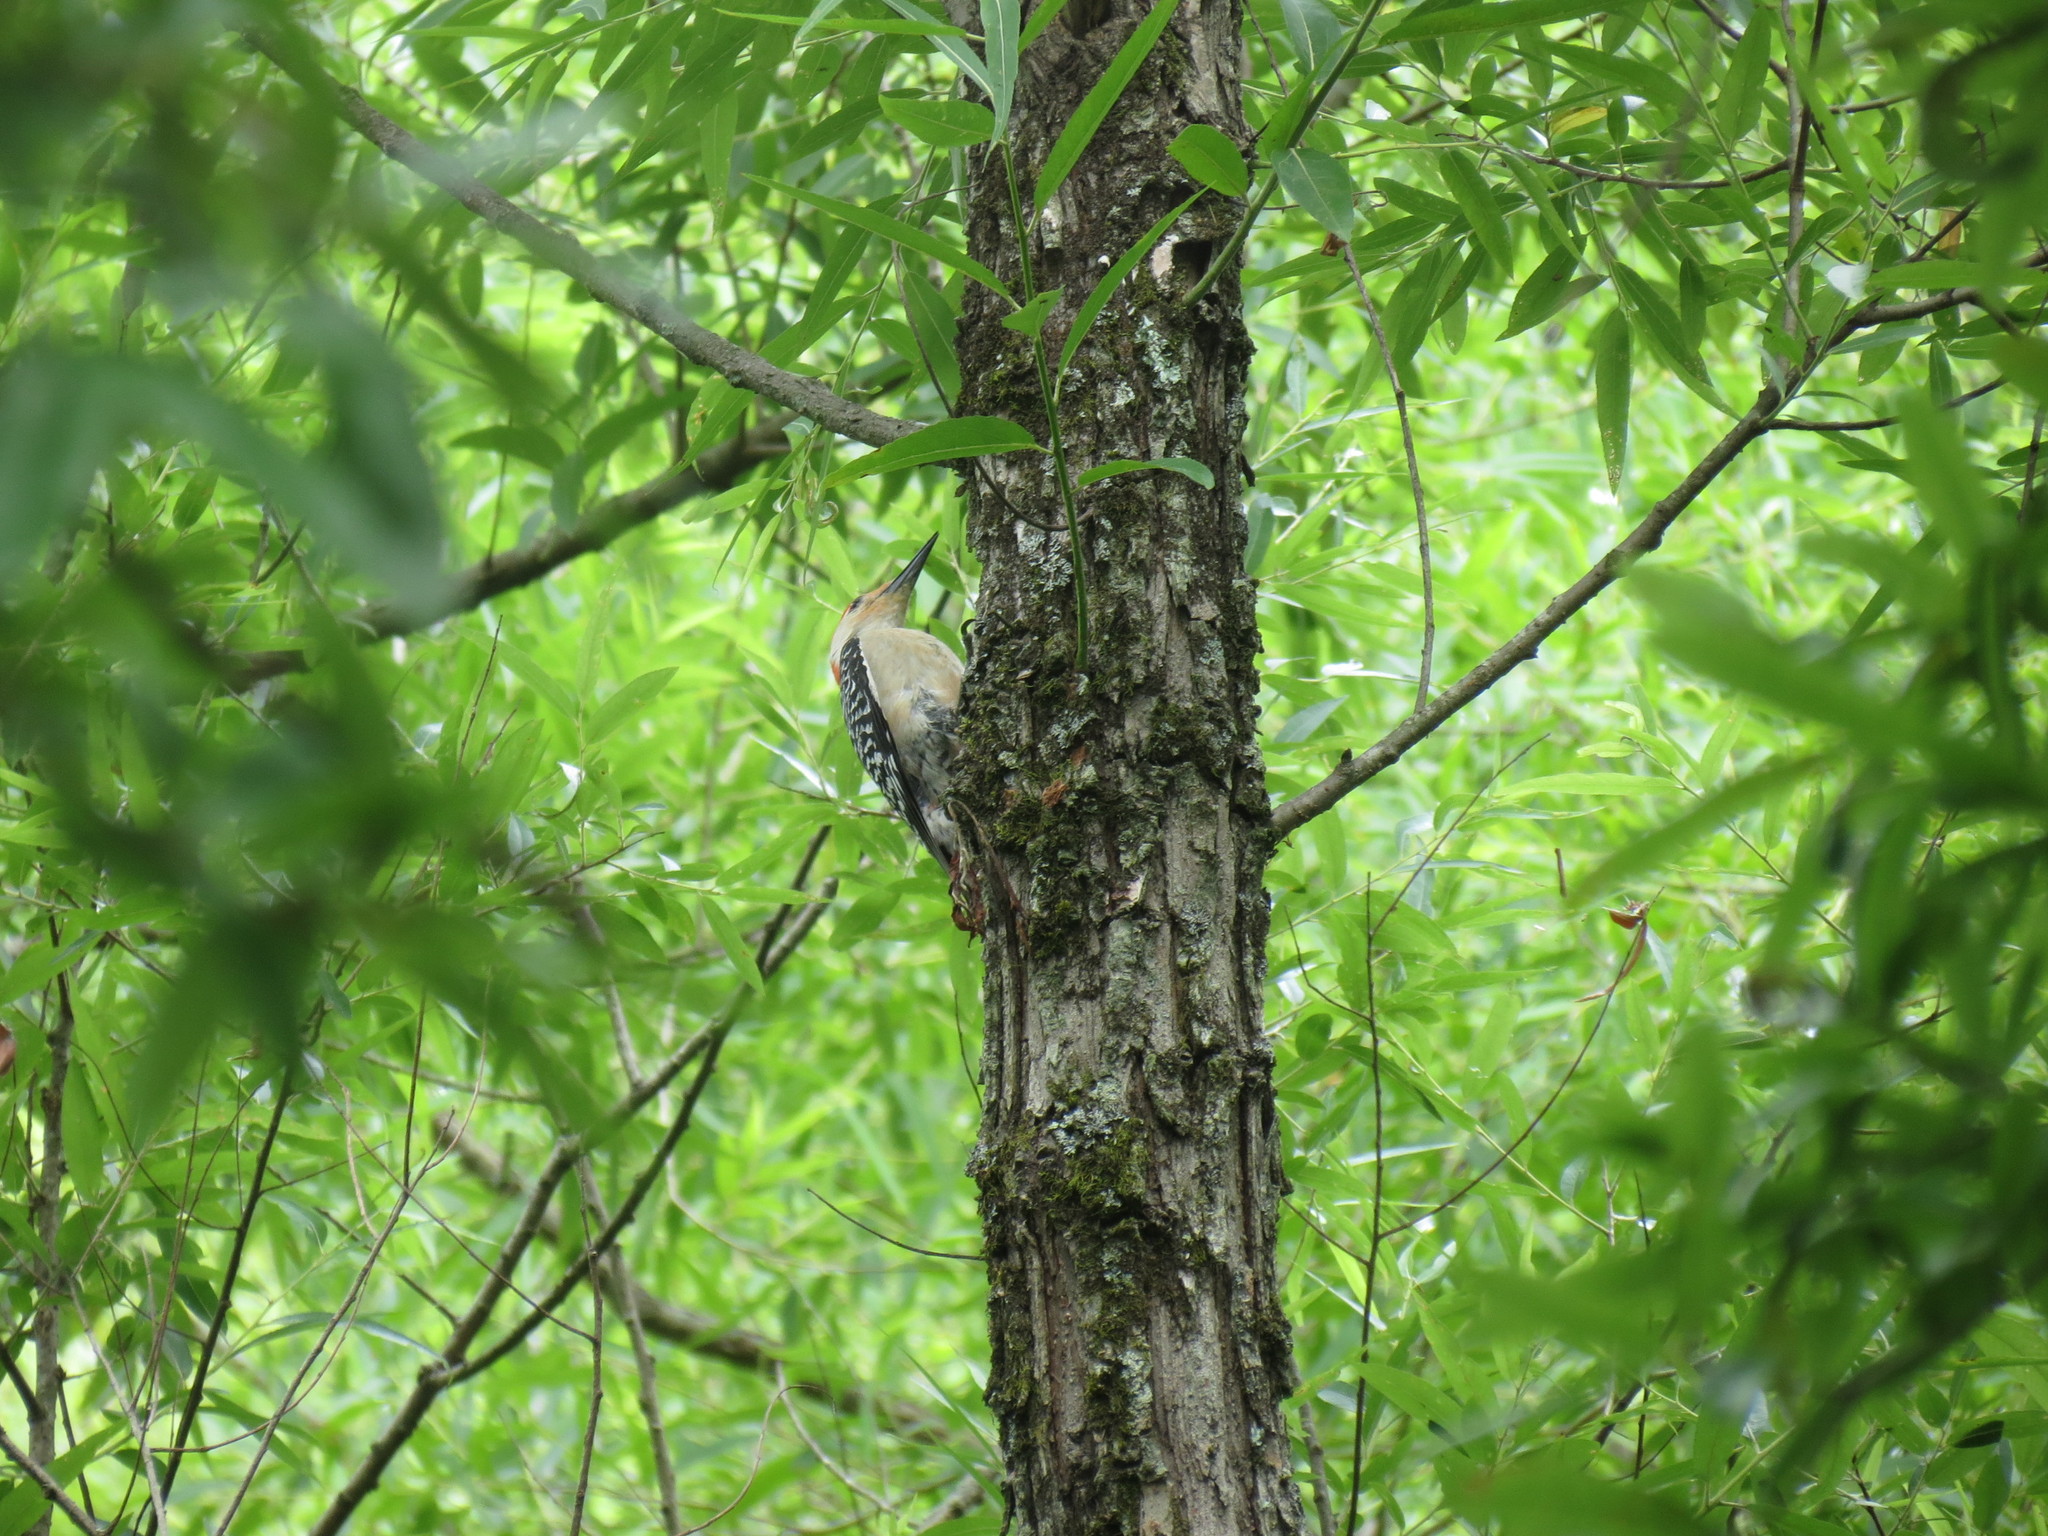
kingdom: Animalia
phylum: Chordata
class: Aves
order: Piciformes
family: Picidae
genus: Melanerpes
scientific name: Melanerpes carolinus
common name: Red-bellied woodpecker
